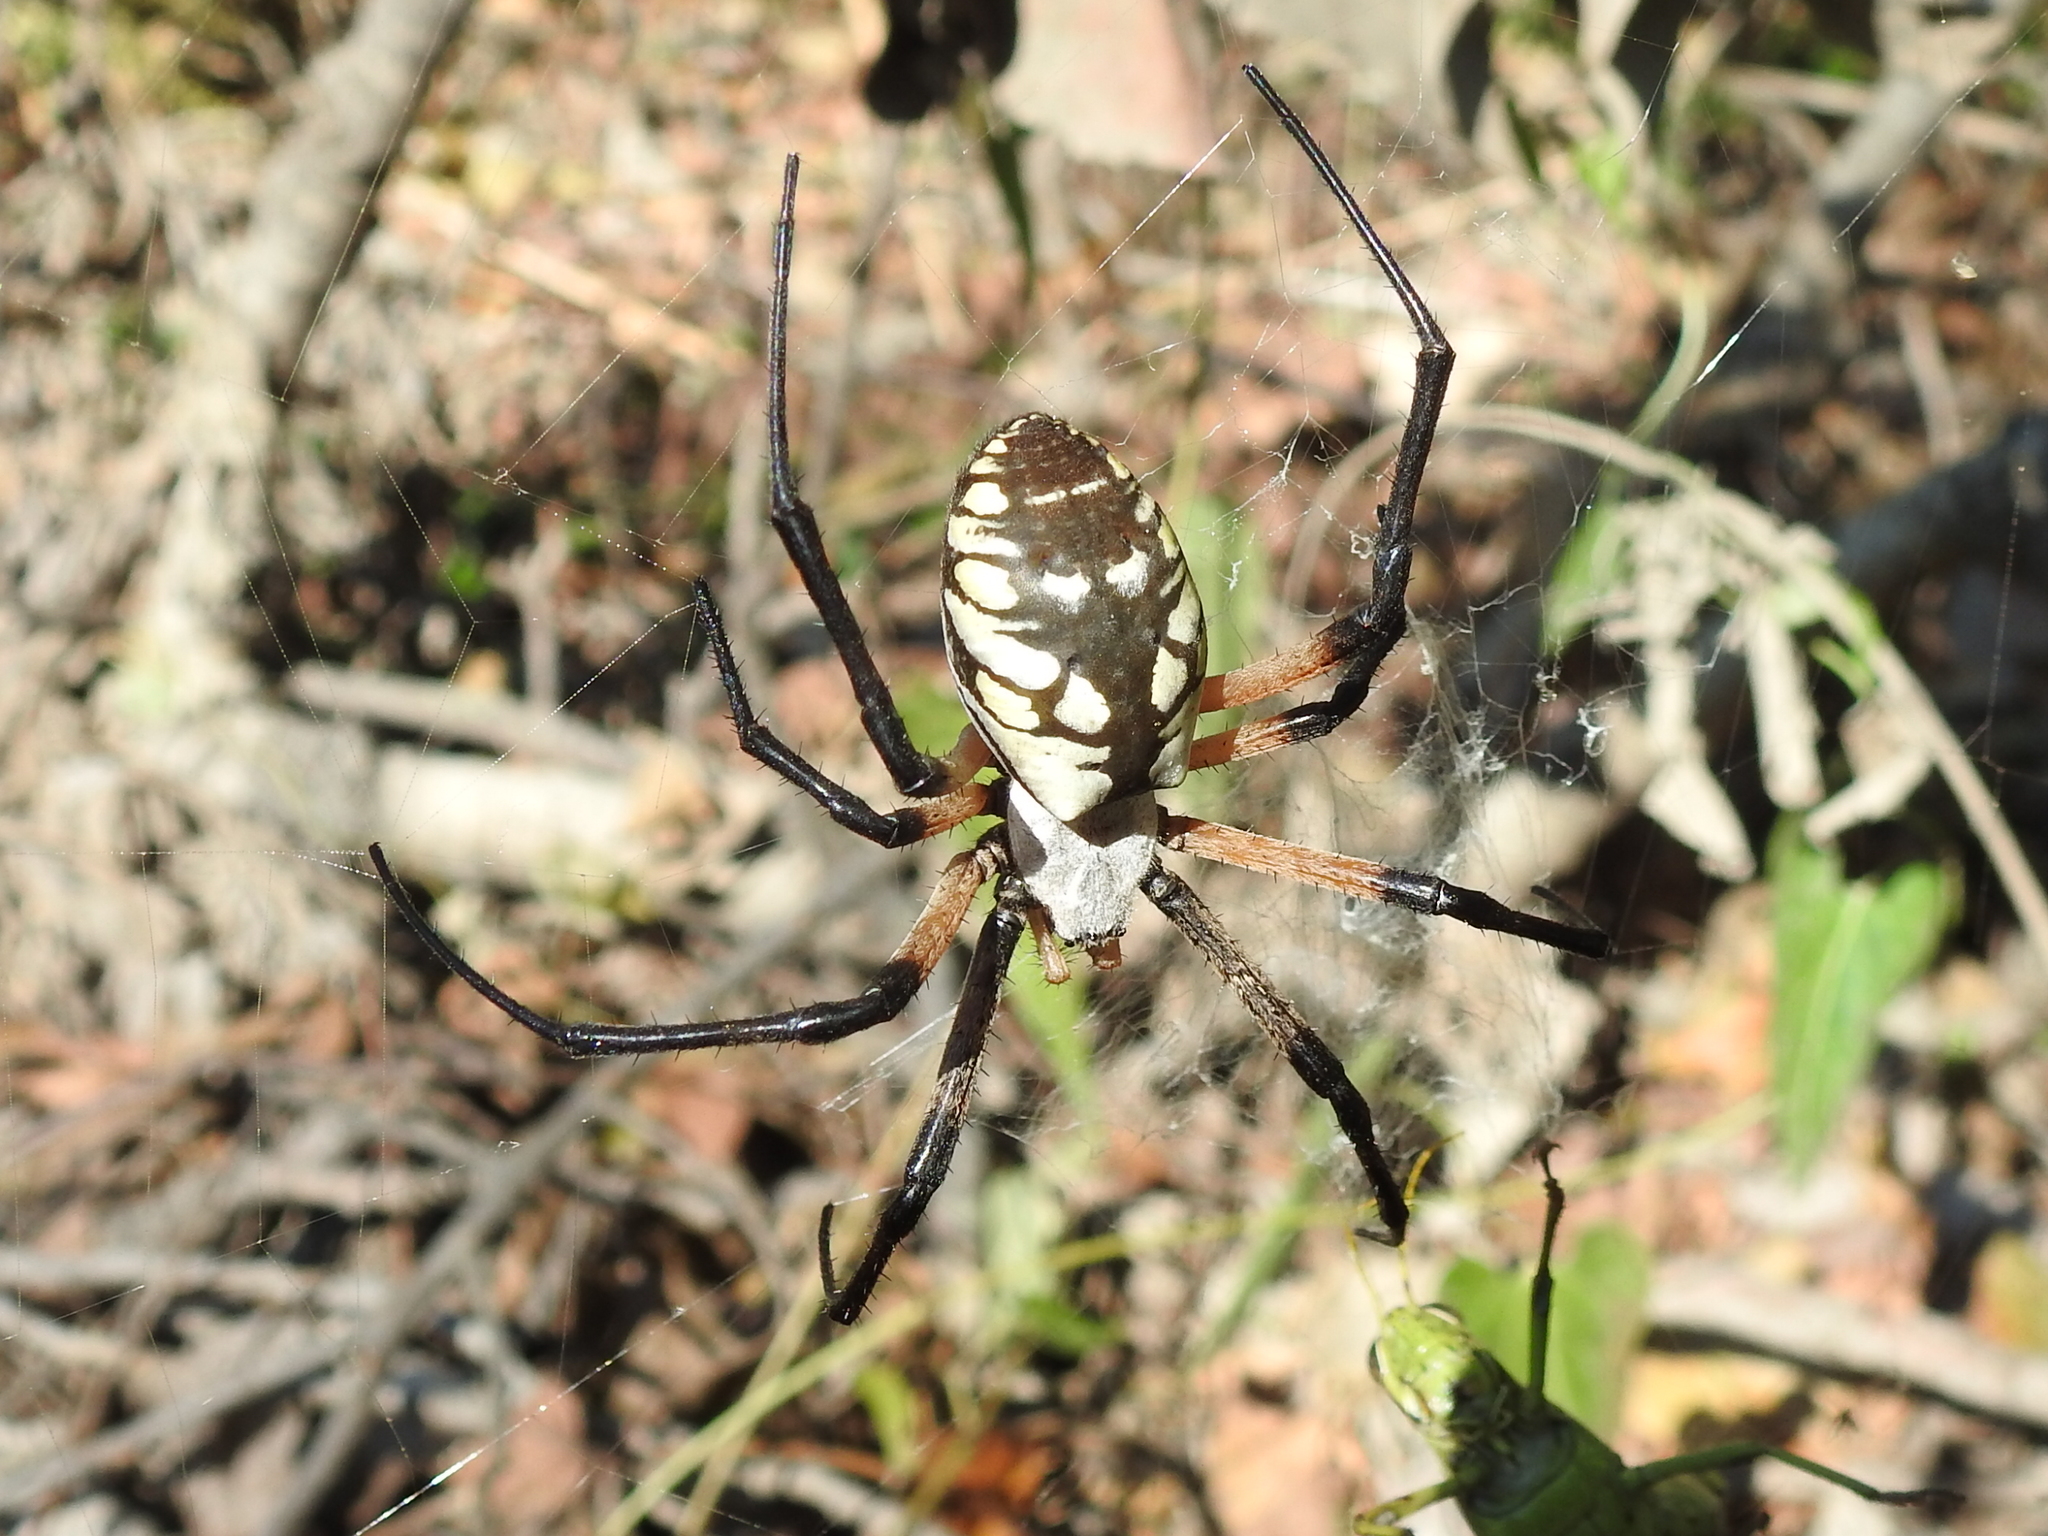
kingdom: Animalia
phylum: Arthropoda
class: Arachnida
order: Araneae
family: Araneidae
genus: Argiope
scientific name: Argiope aurantia
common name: Orb weavers
